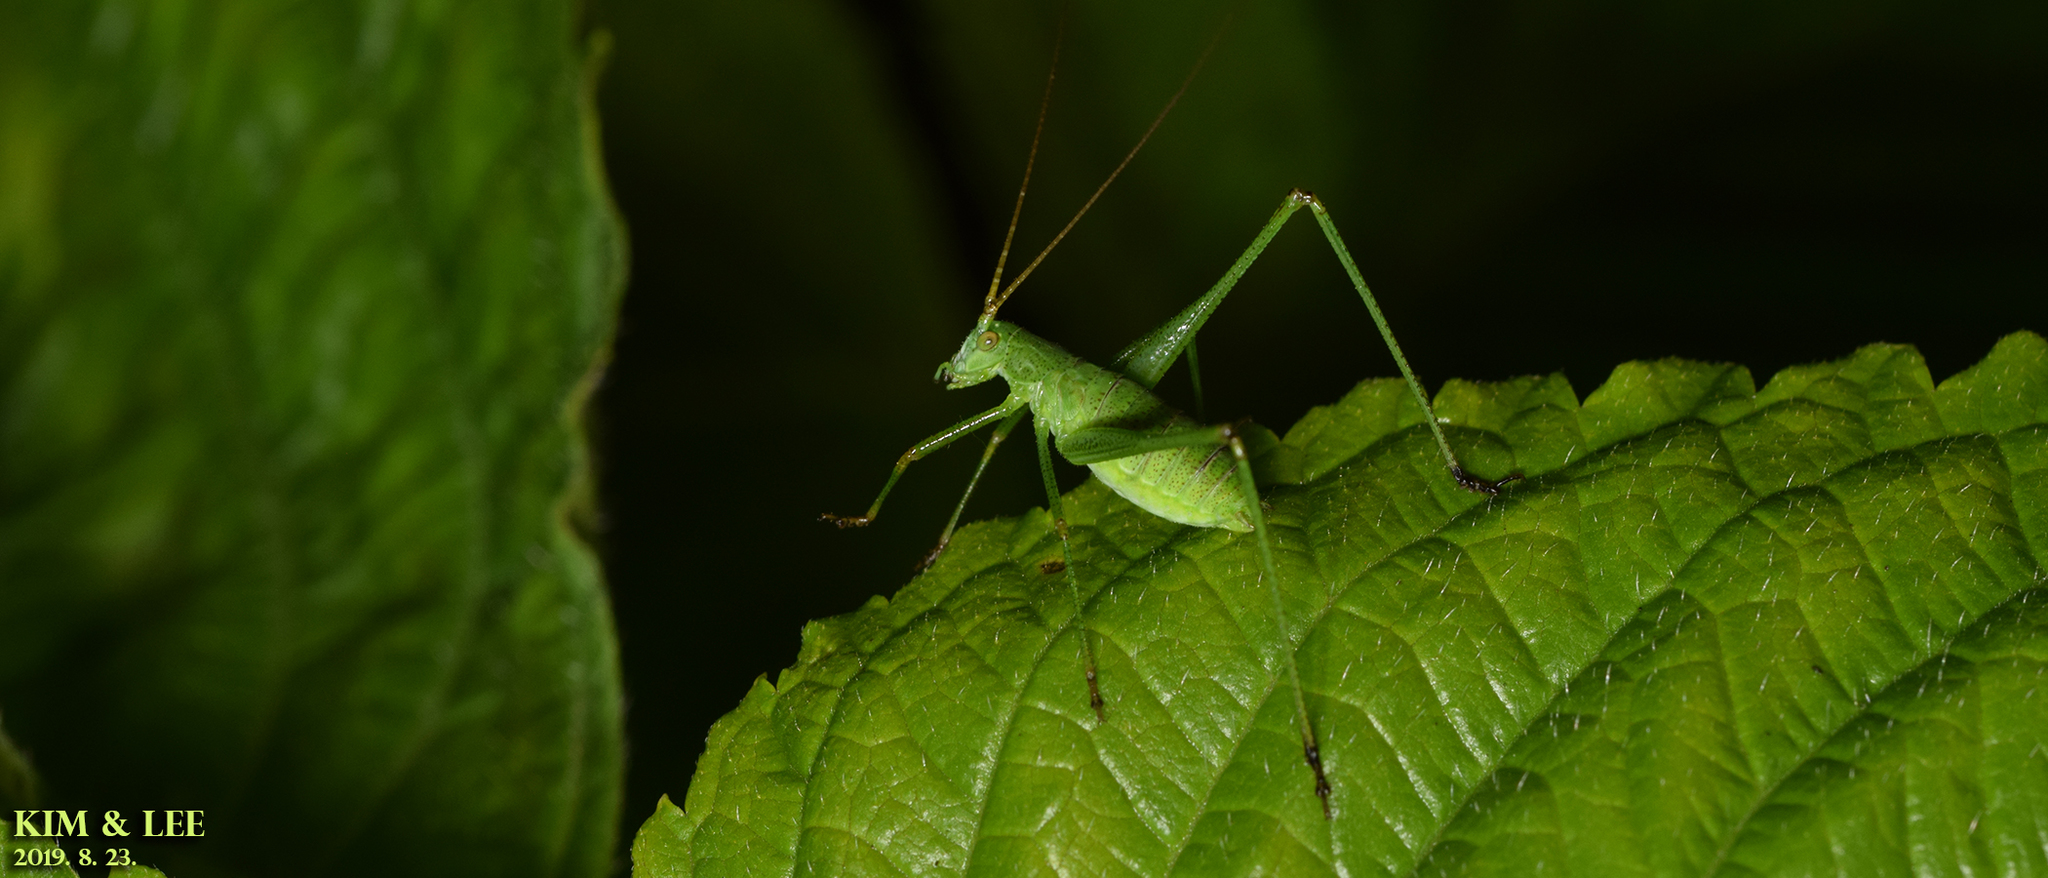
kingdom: Animalia
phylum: Arthropoda
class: Insecta
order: Orthoptera
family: Tettigoniidae
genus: Phaneroptera
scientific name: Phaneroptera falcata
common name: Sickle-bearing bush-cricket
